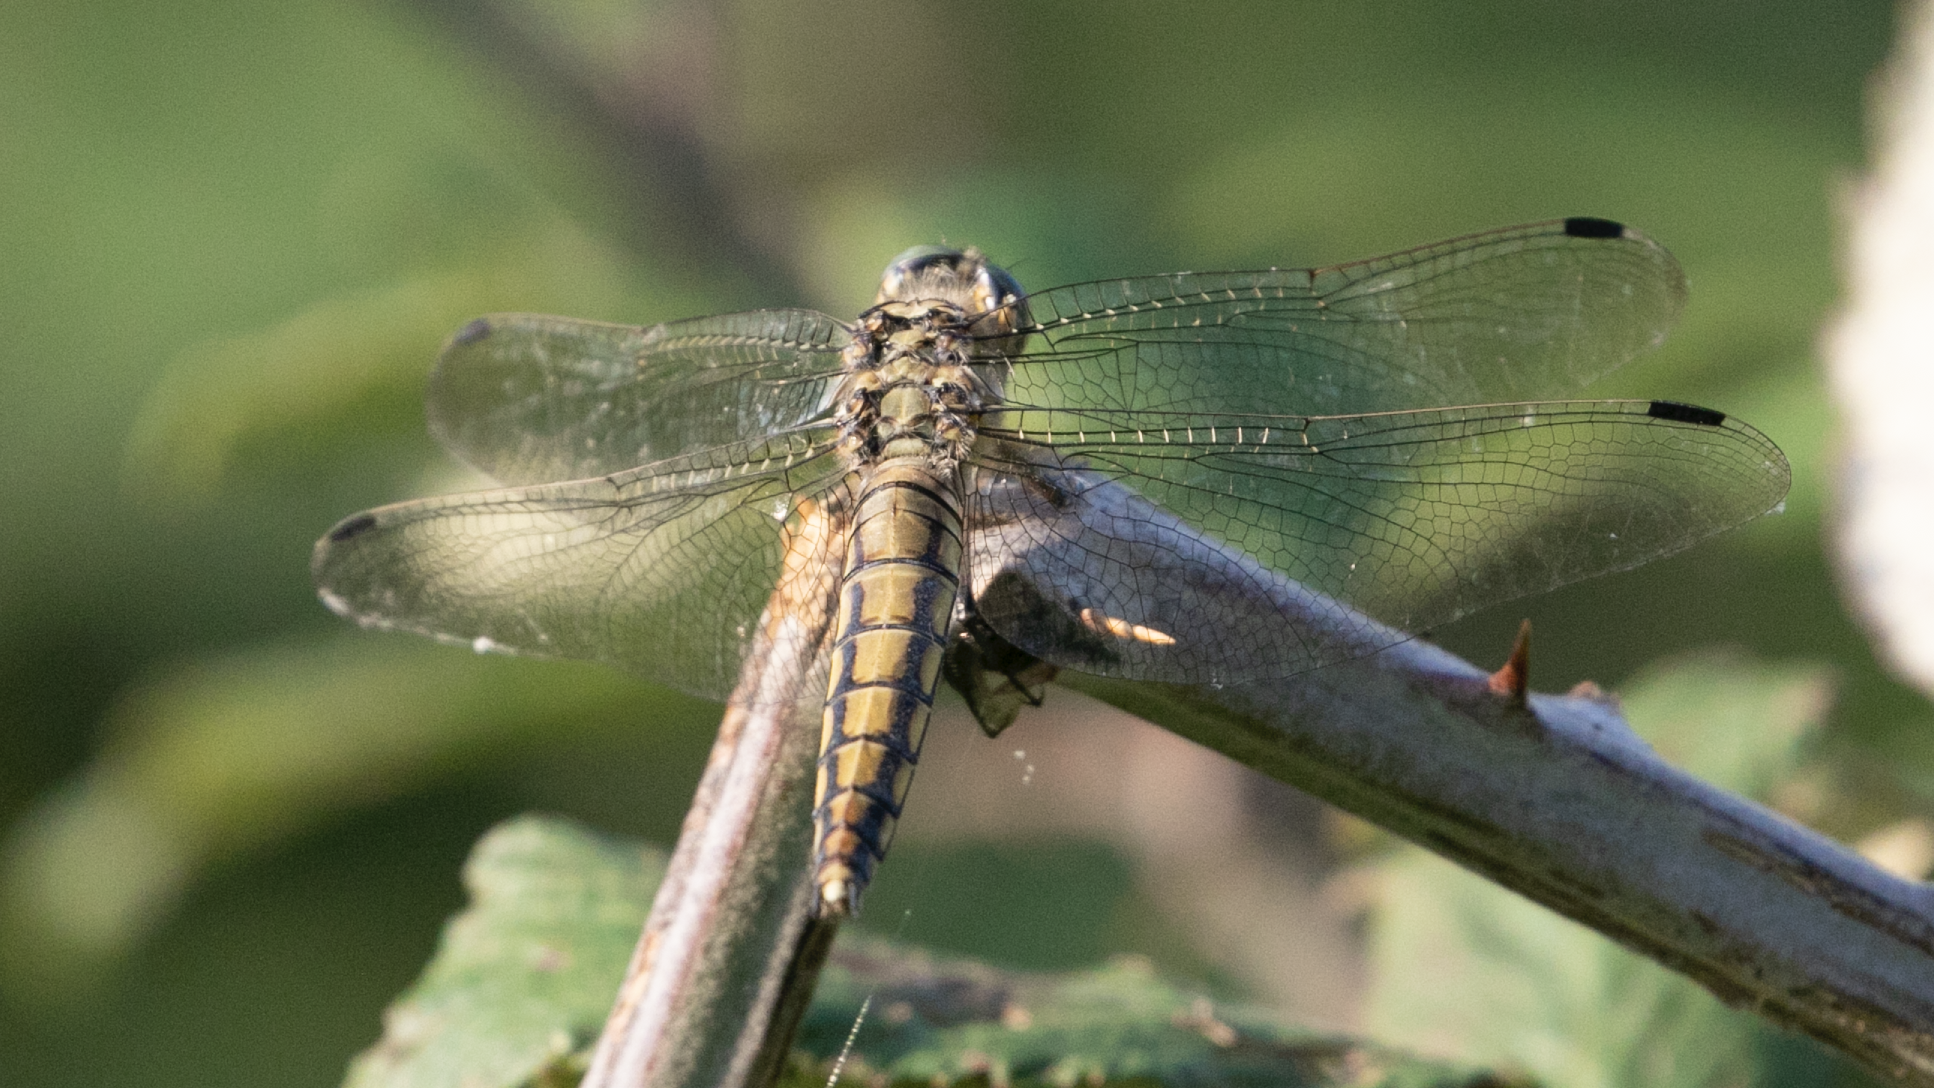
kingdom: Animalia
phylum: Arthropoda
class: Insecta
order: Odonata
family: Libellulidae
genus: Orthetrum
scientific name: Orthetrum cancellatum
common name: Black-tailed skimmer
